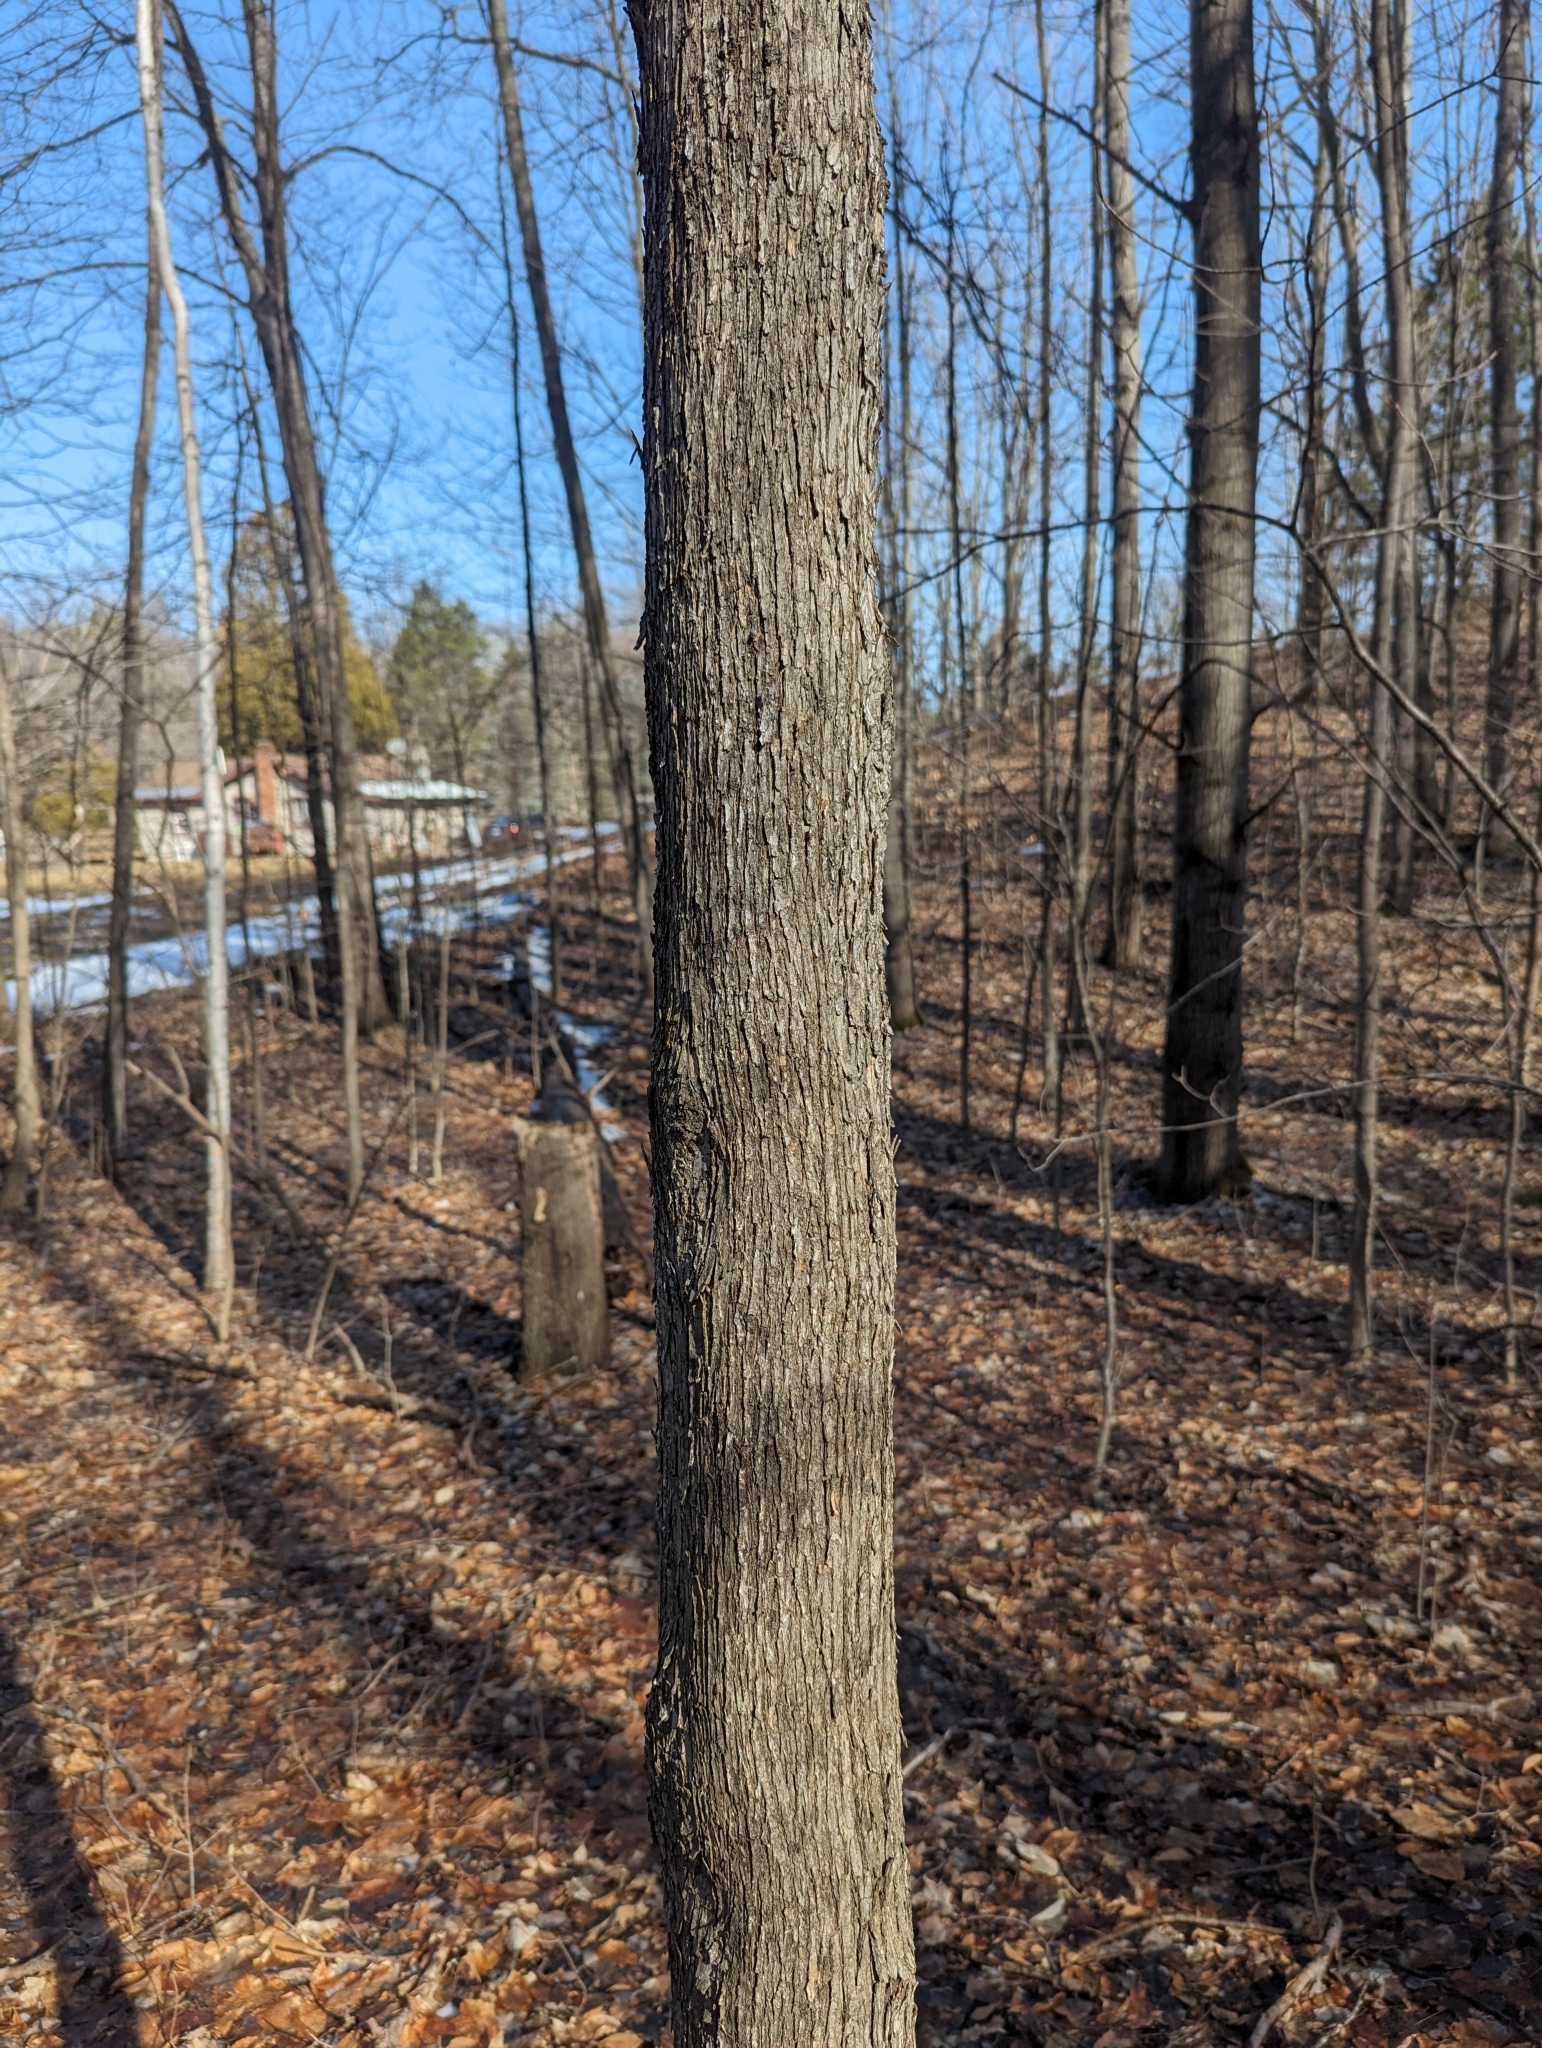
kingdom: Plantae
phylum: Tracheophyta
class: Magnoliopsida
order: Fagales
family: Betulaceae
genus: Ostrya
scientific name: Ostrya virginiana
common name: Ironwood
